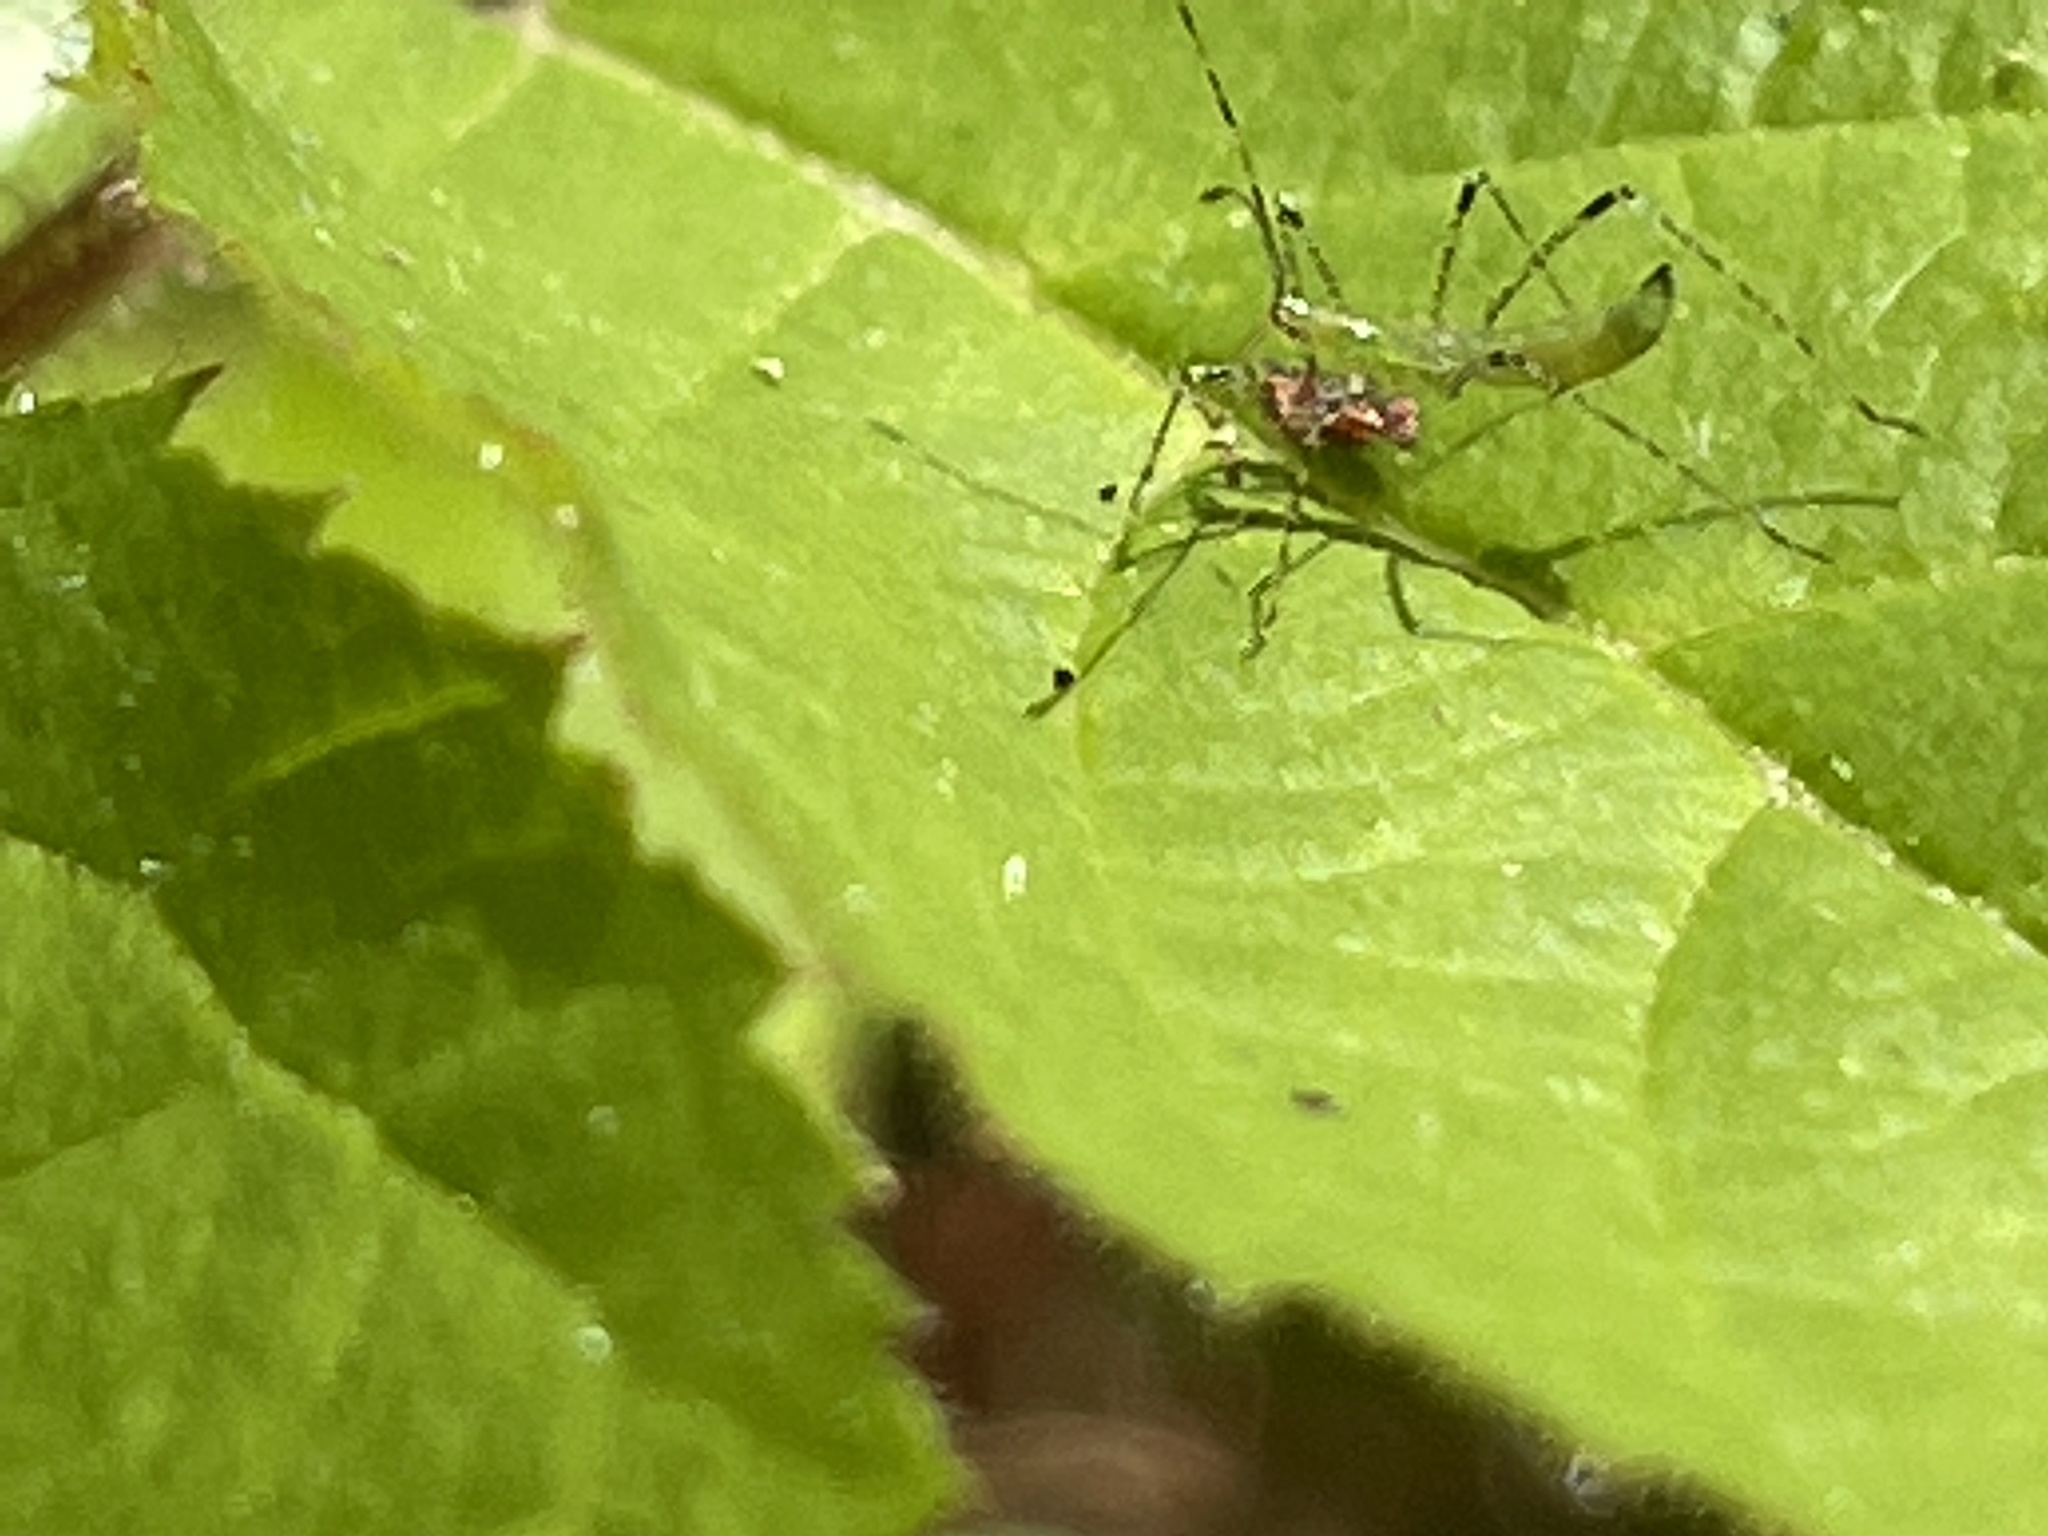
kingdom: Animalia
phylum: Arthropoda
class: Insecta
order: Hemiptera
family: Reduviidae
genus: Zelus
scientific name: Zelus luridus
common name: Pale green assassin bug
